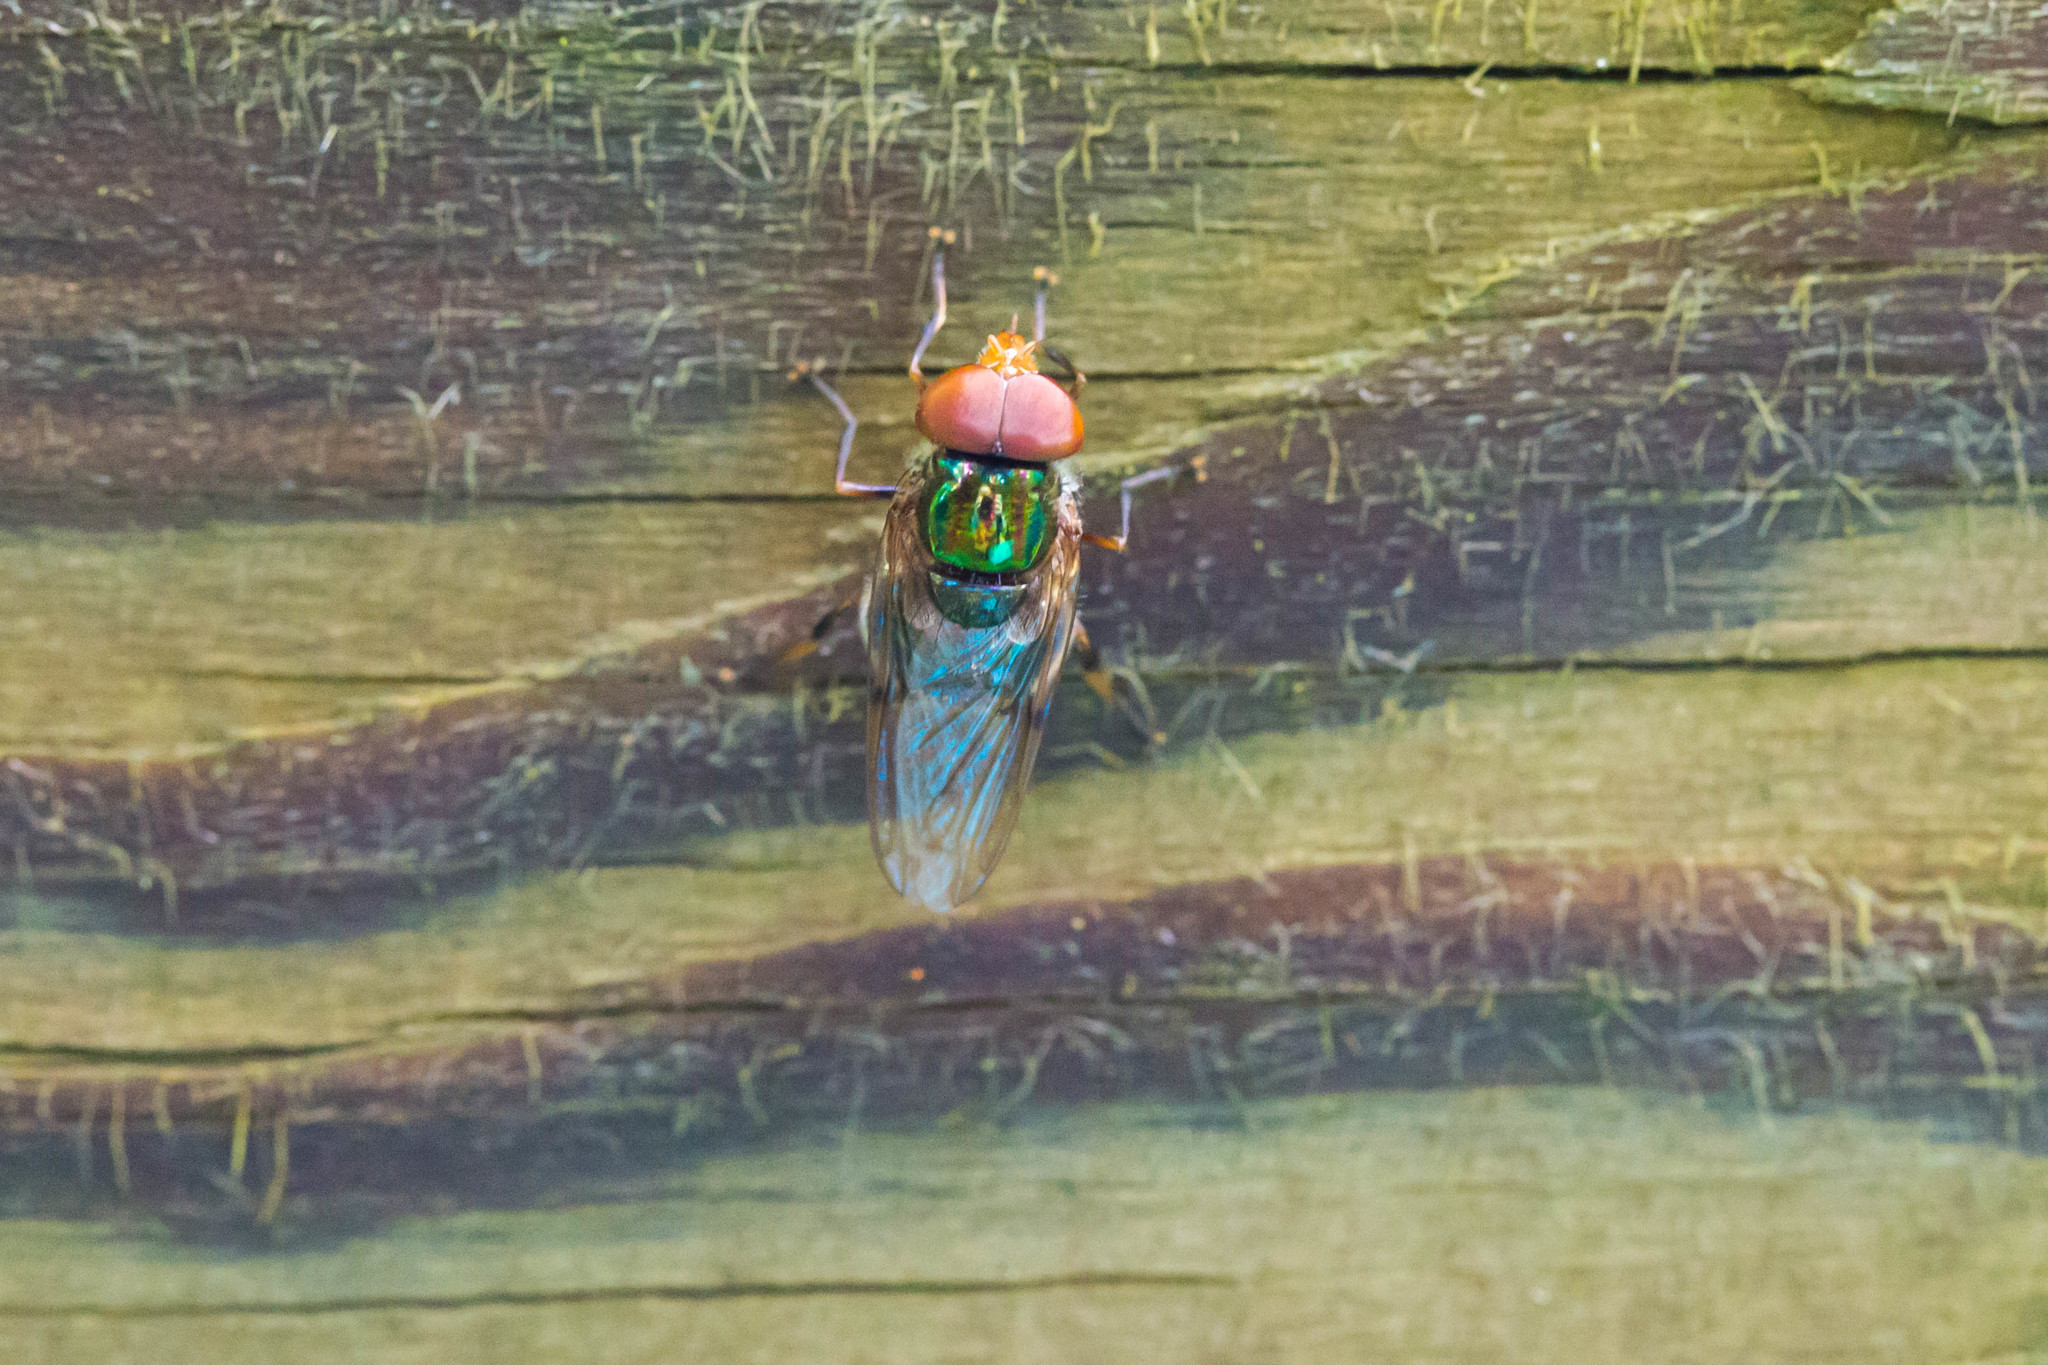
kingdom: Animalia
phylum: Arthropoda
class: Insecta
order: Diptera
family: Syrphidae
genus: Copestylum
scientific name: Copestylum
